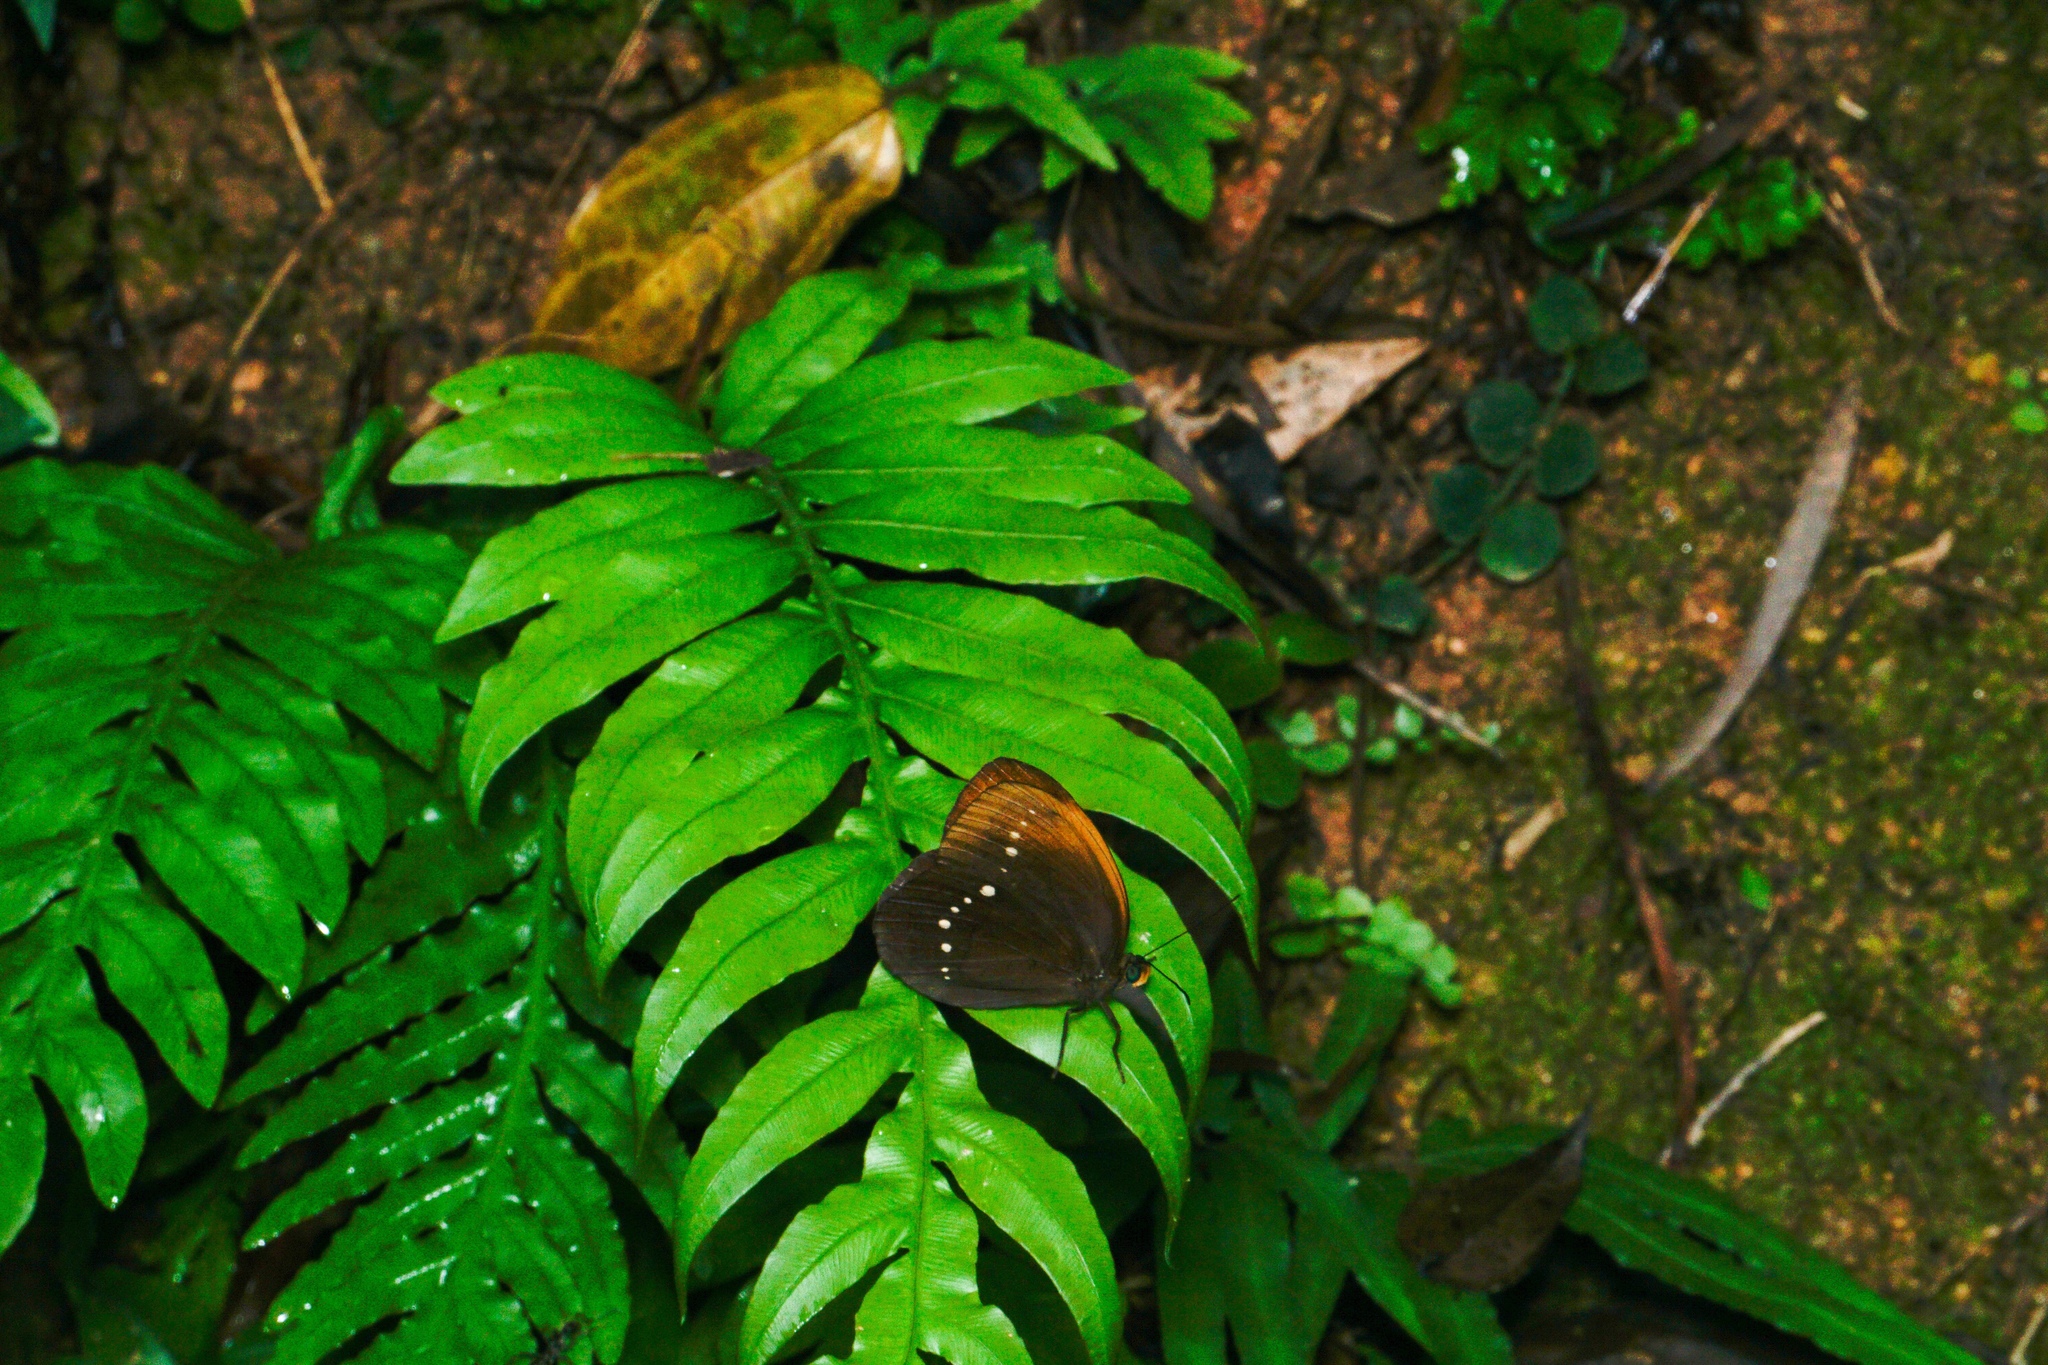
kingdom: Animalia
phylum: Arthropoda
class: Insecta
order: Lepidoptera
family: Nymphalidae
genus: Faunis
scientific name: Faunis eumeus
